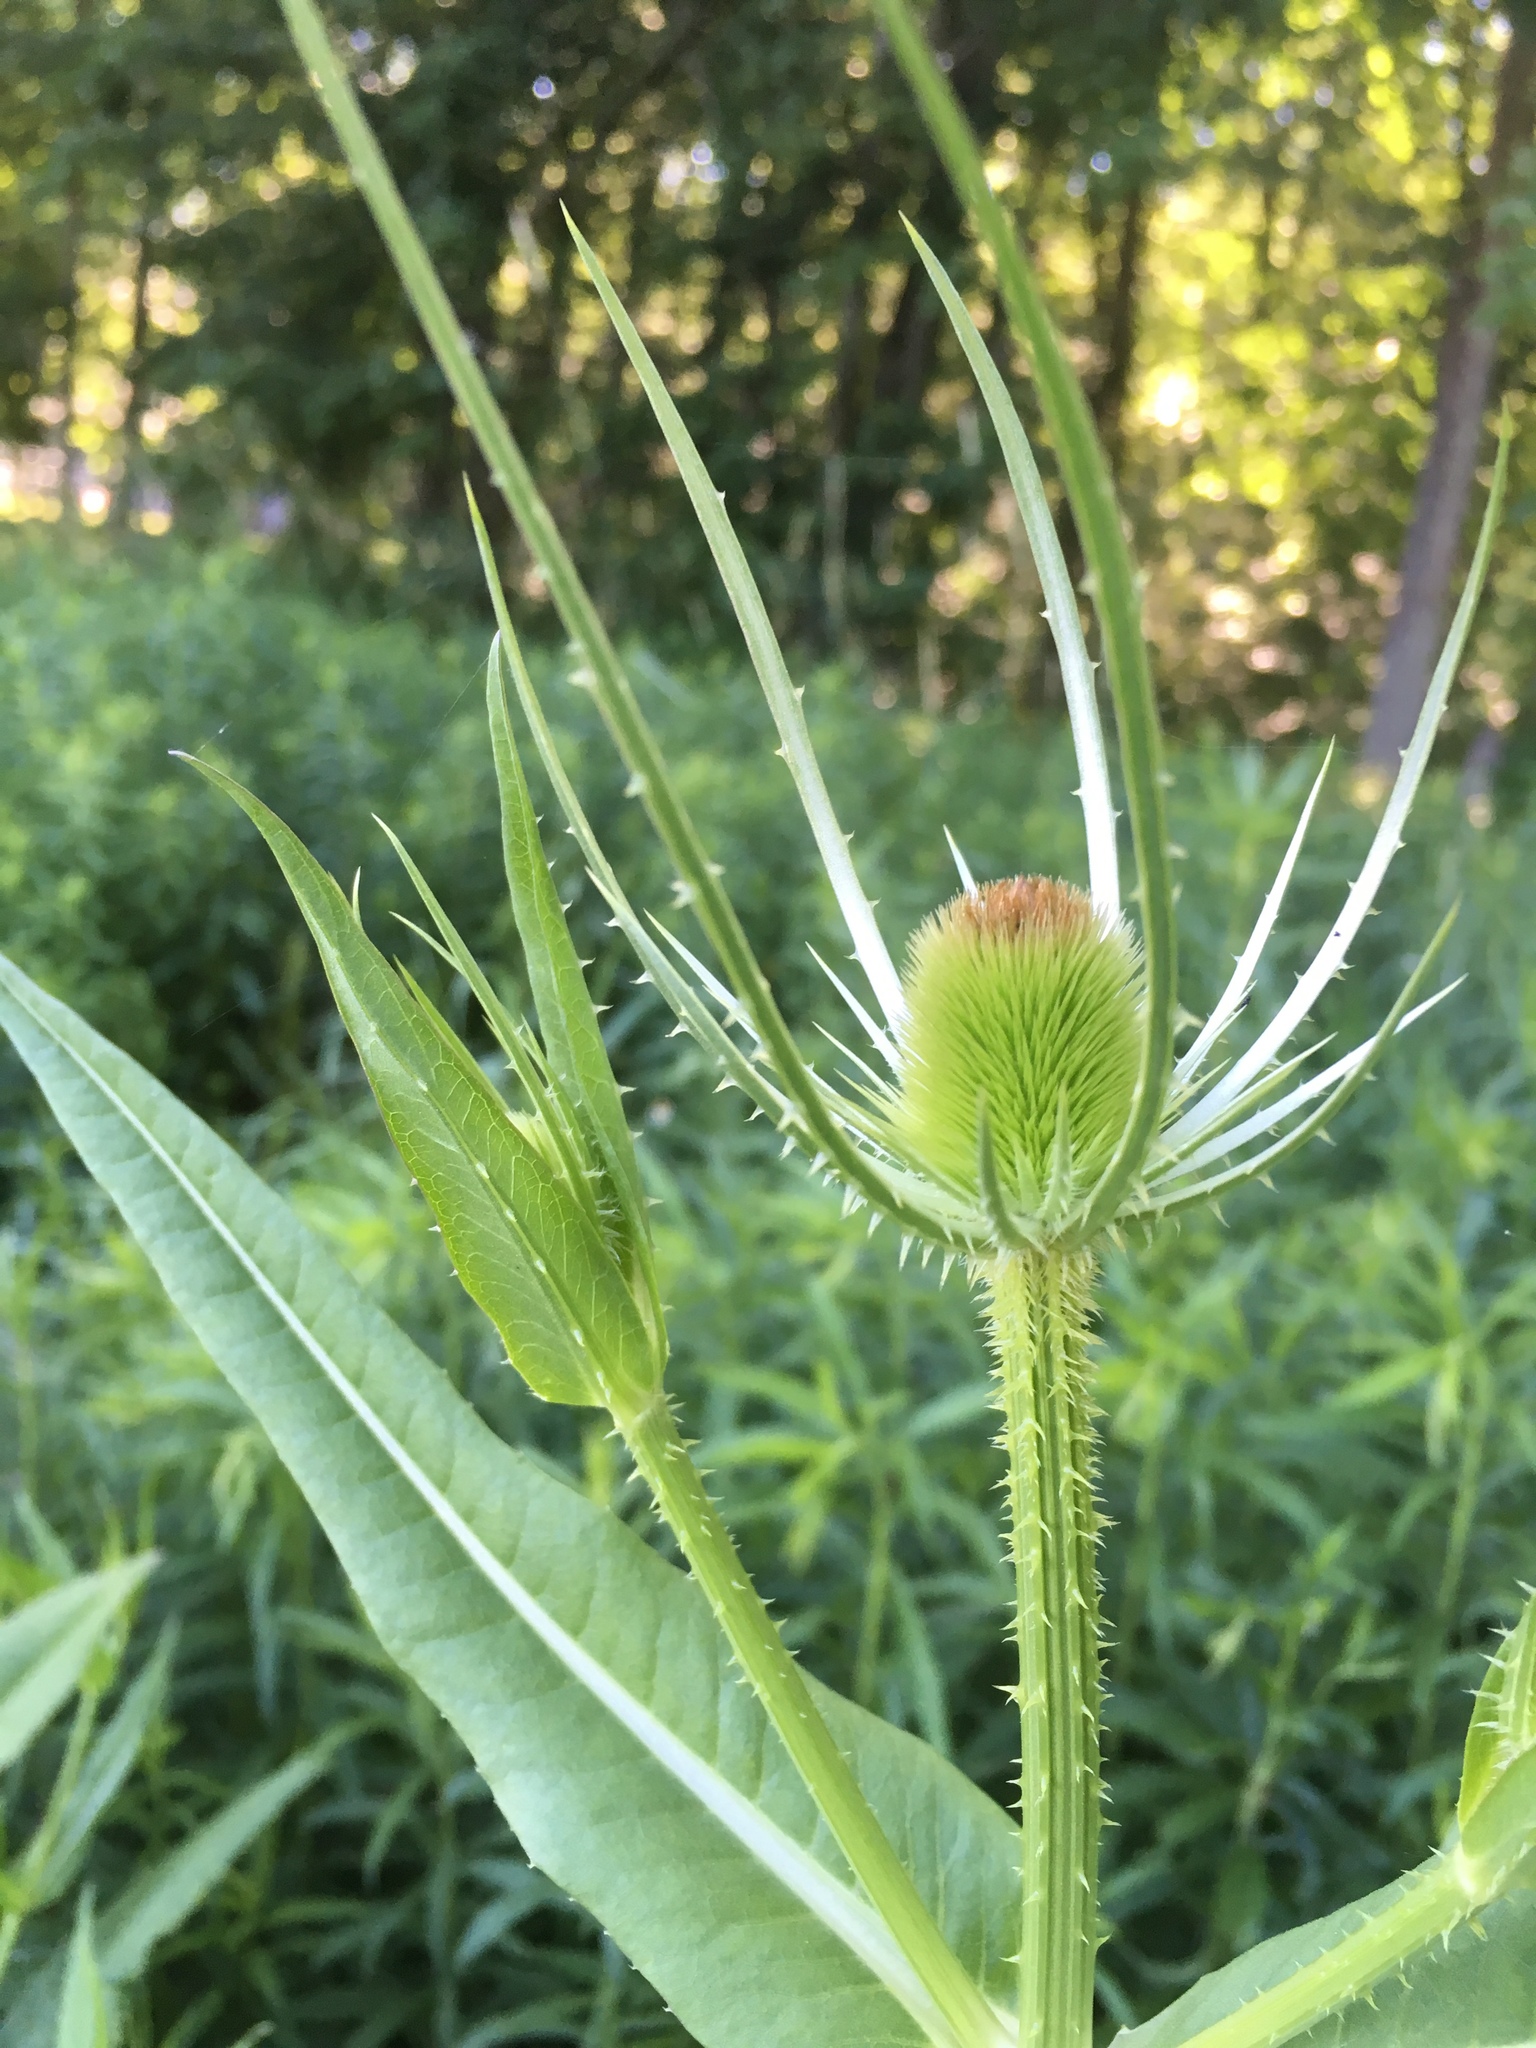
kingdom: Plantae
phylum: Tracheophyta
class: Magnoliopsida
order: Dipsacales
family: Caprifoliaceae
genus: Dipsacus
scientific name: Dipsacus fullonum
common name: Teasel
